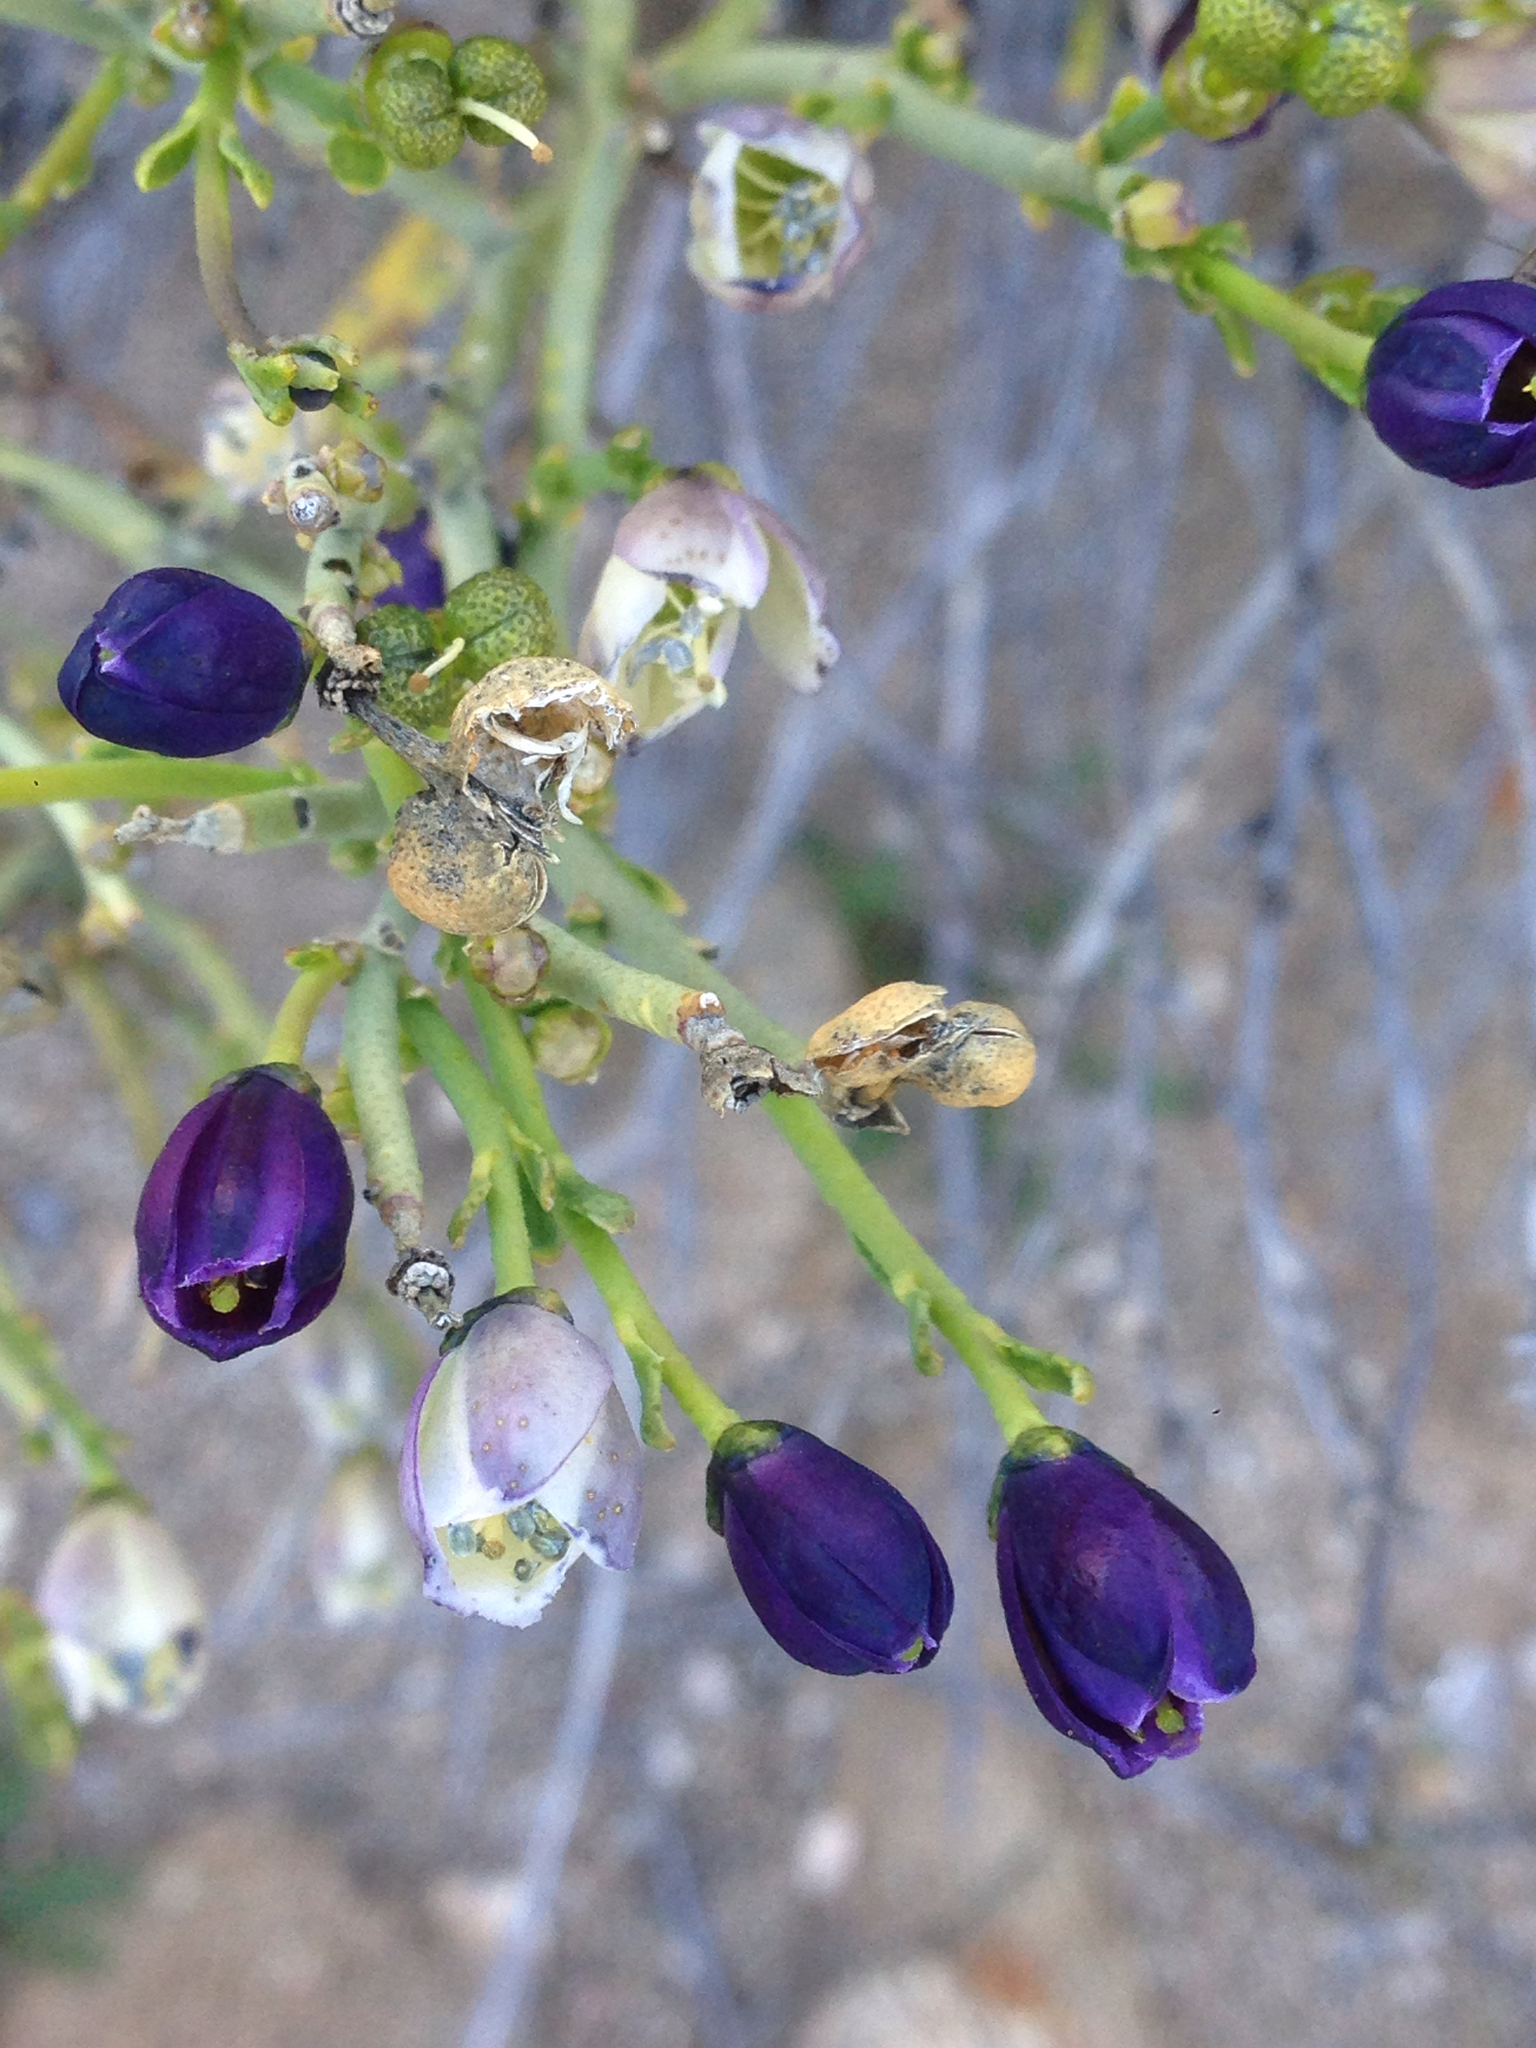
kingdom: Plantae
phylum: Tracheophyta
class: Magnoliopsida
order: Sapindales
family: Rutaceae
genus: Thamnosma
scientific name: Thamnosma montana
